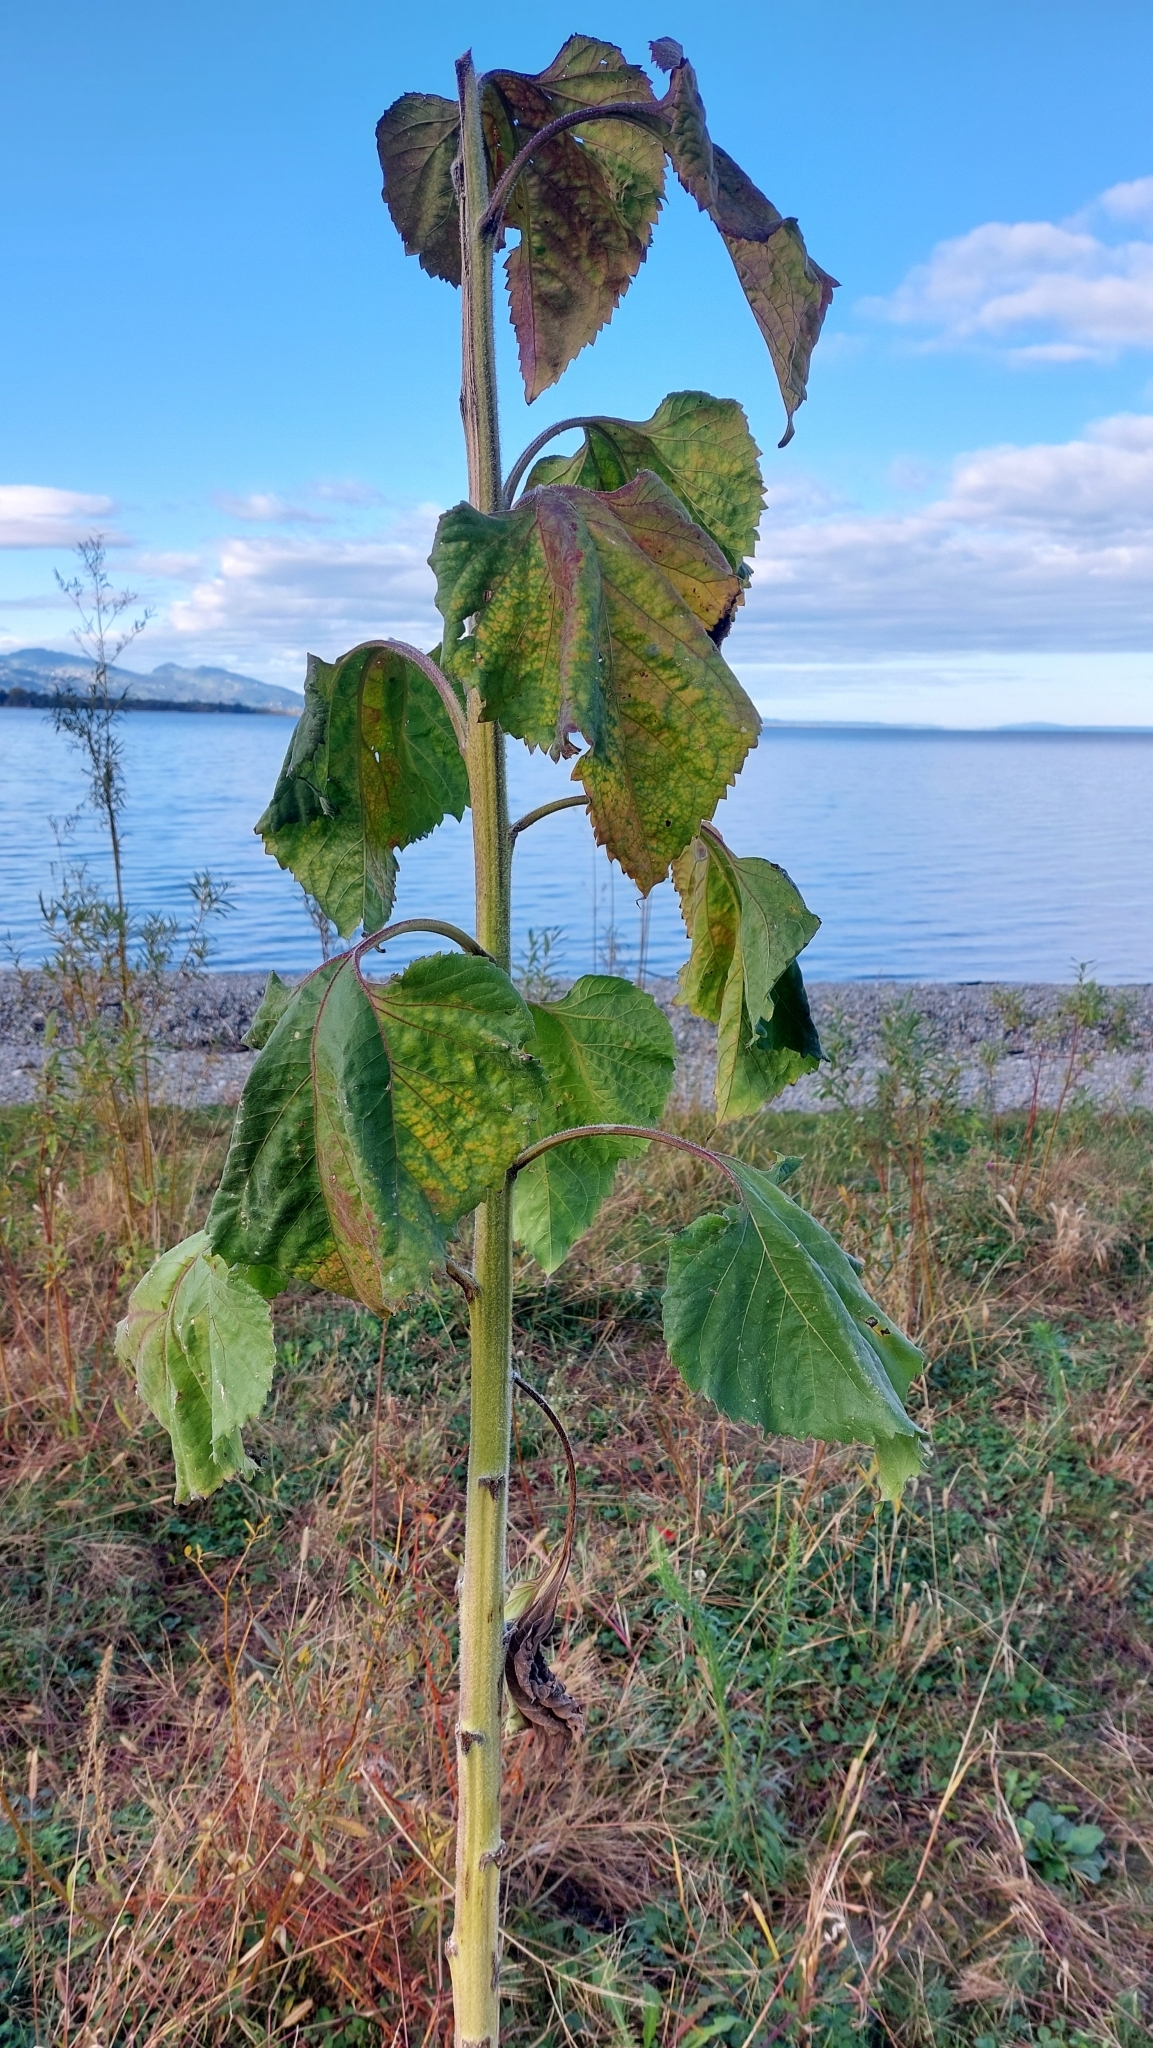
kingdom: Plantae
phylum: Tracheophyta
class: Magnoliopsida
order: Asterales
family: Asteraceae
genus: Helianthus
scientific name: Helianthus annuus
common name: Sunflower
